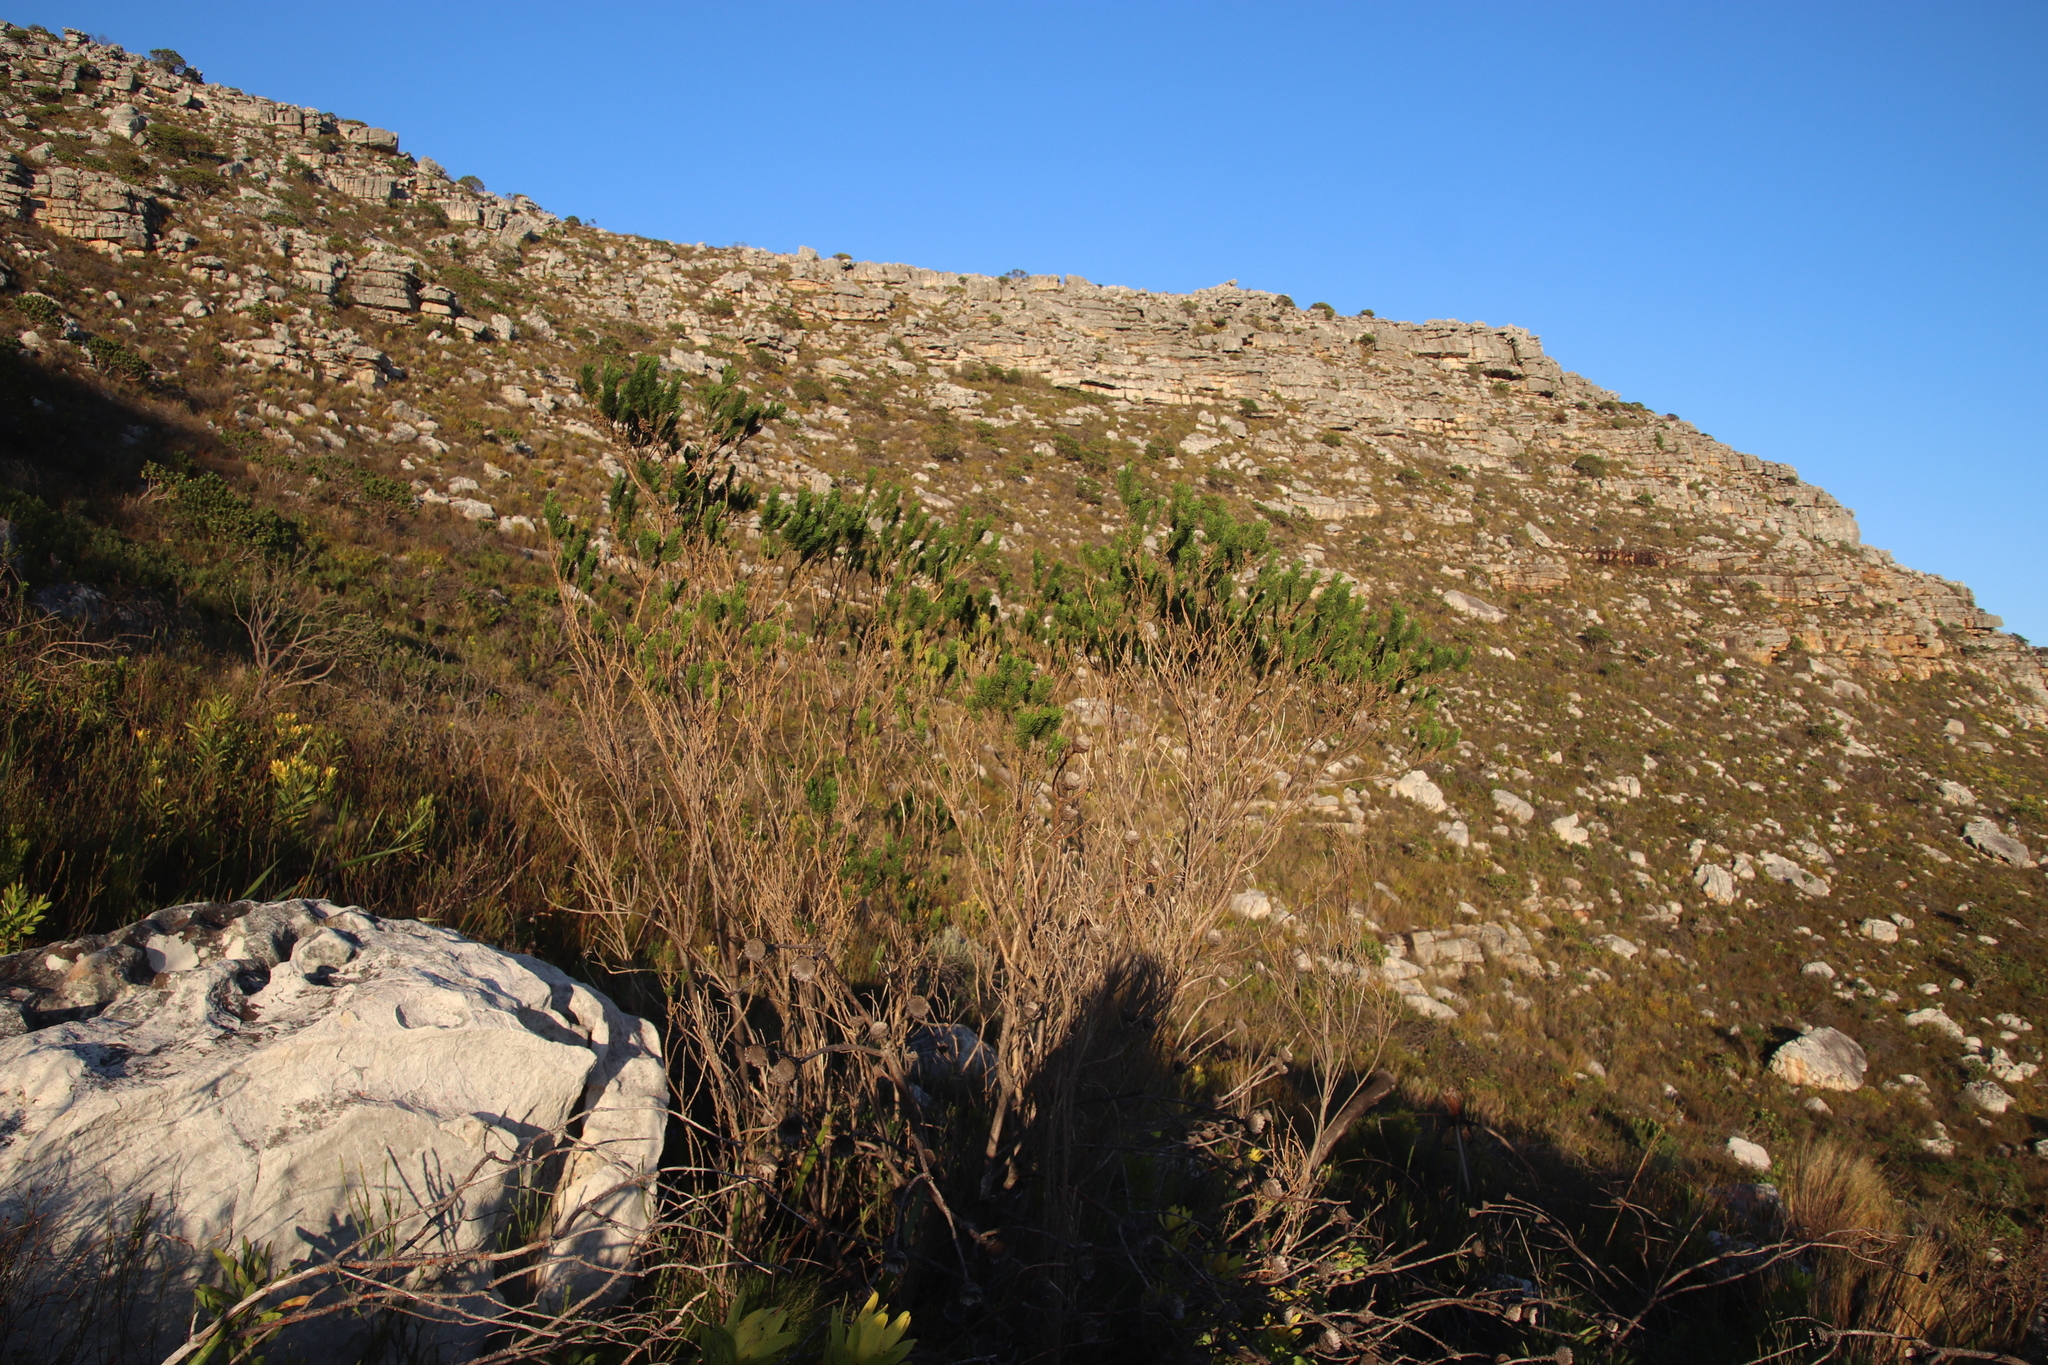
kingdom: Plantae
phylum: Tracheophyta
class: Magnoliopsida
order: Fabales
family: Fabaceae
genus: Psoralea
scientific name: Psoralea pinnata
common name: African scurfpea
